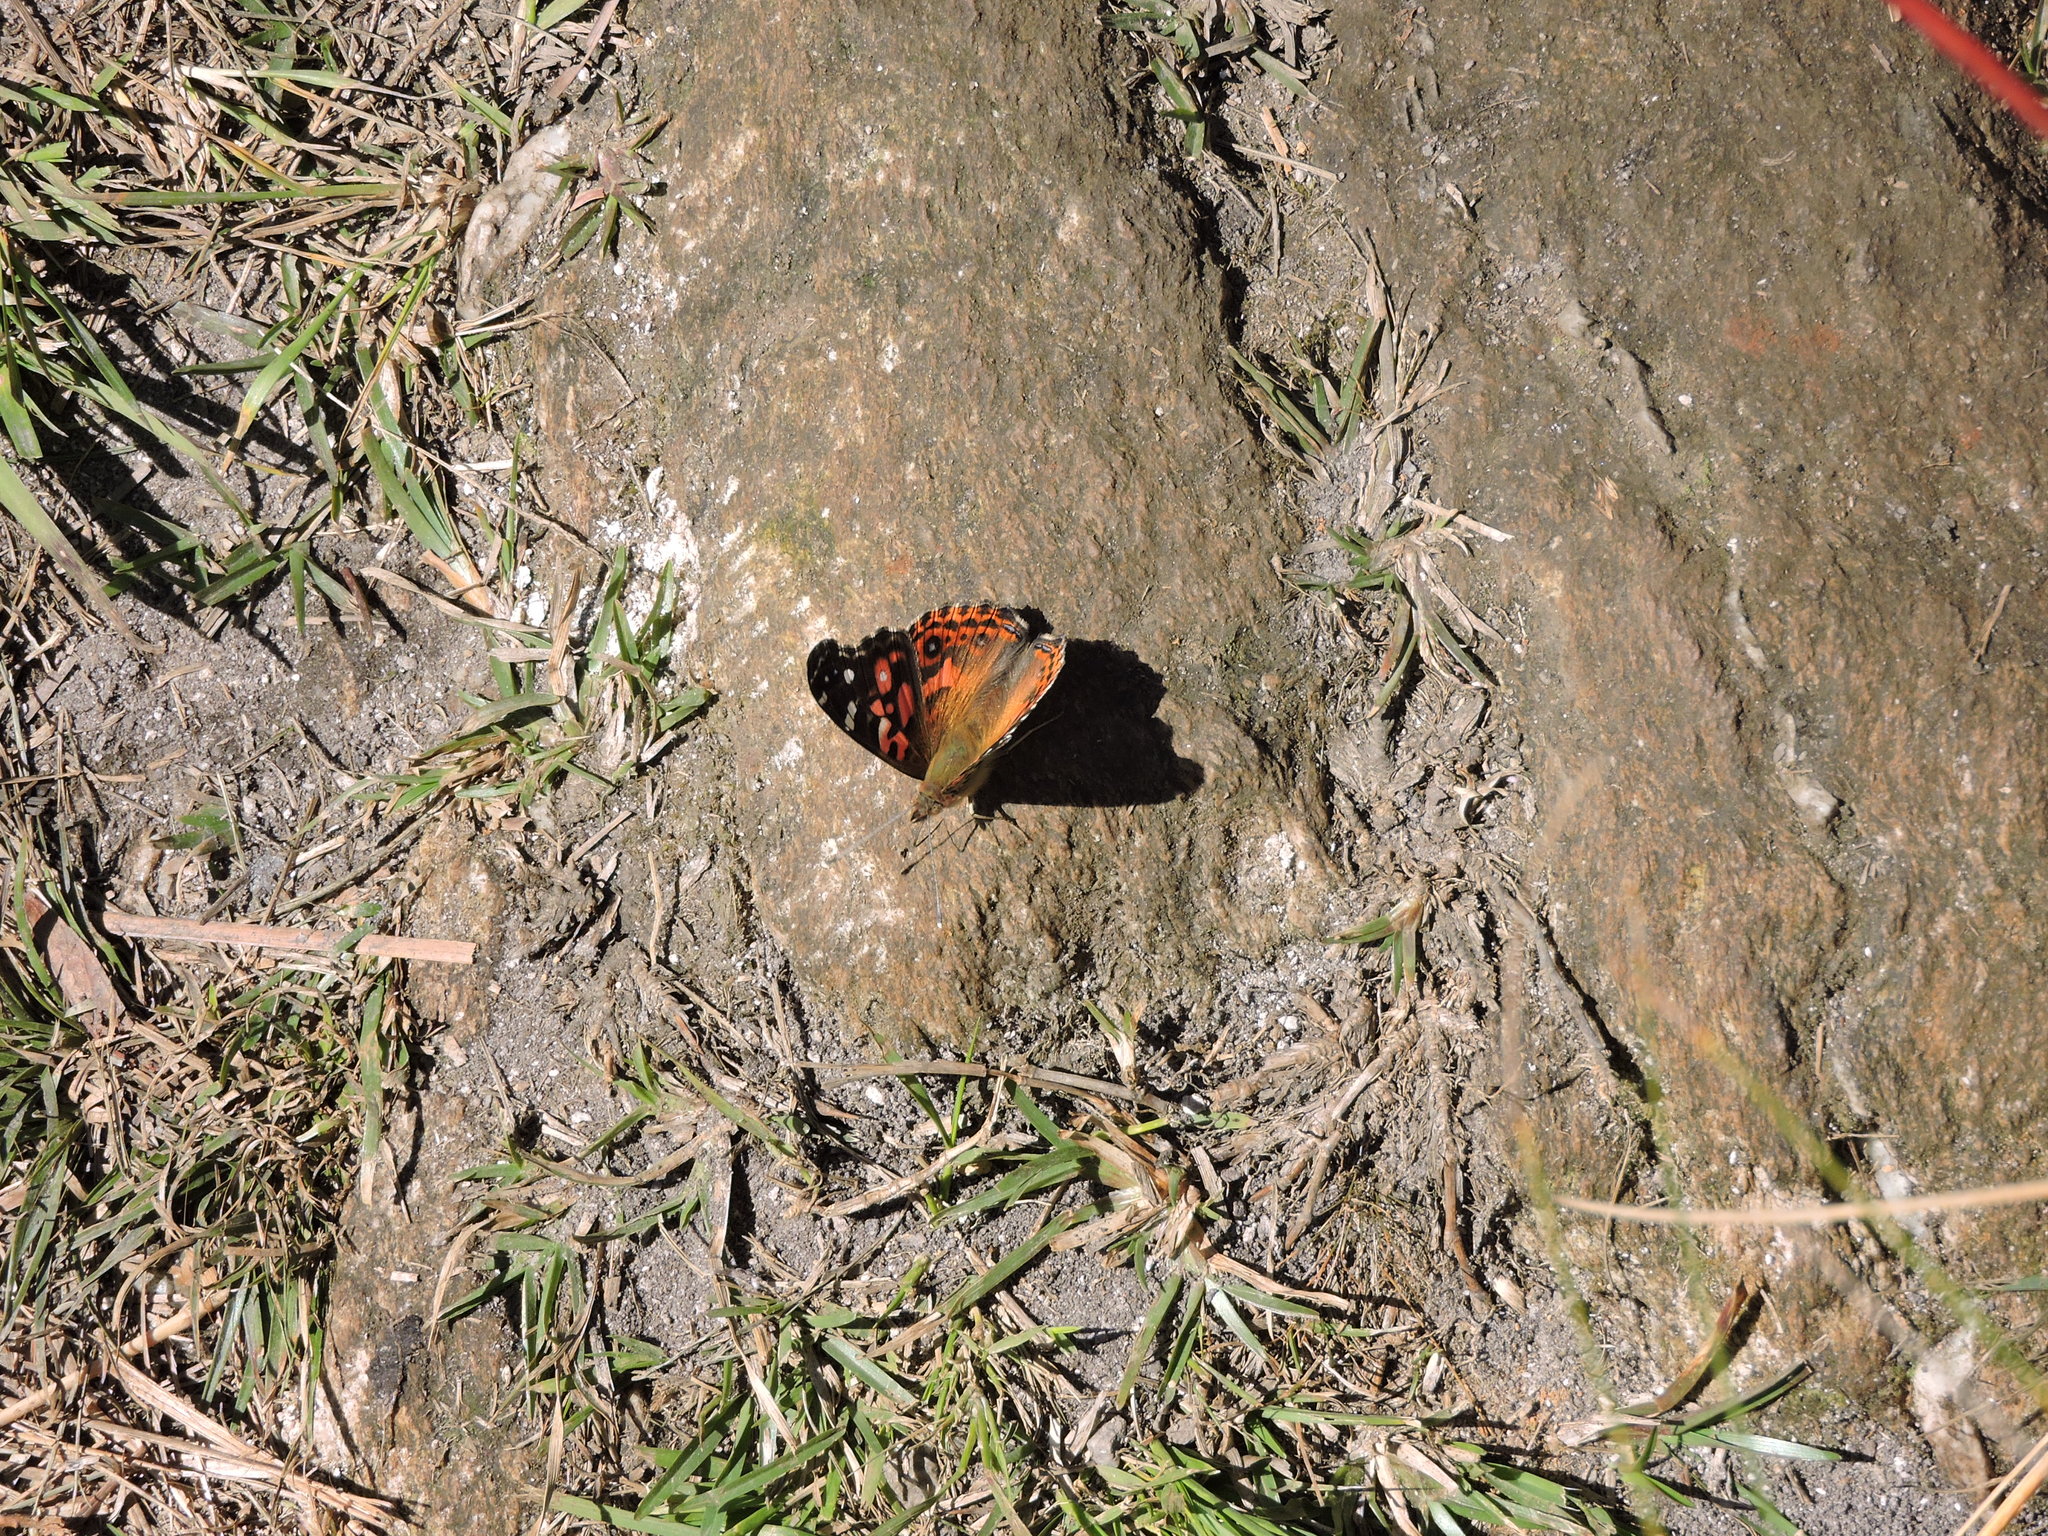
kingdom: Animalia
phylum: Arthropoda
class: Insecta
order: Lepidoptera
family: Nymphalidae
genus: Vanessa
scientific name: Vanessa braziliensis
